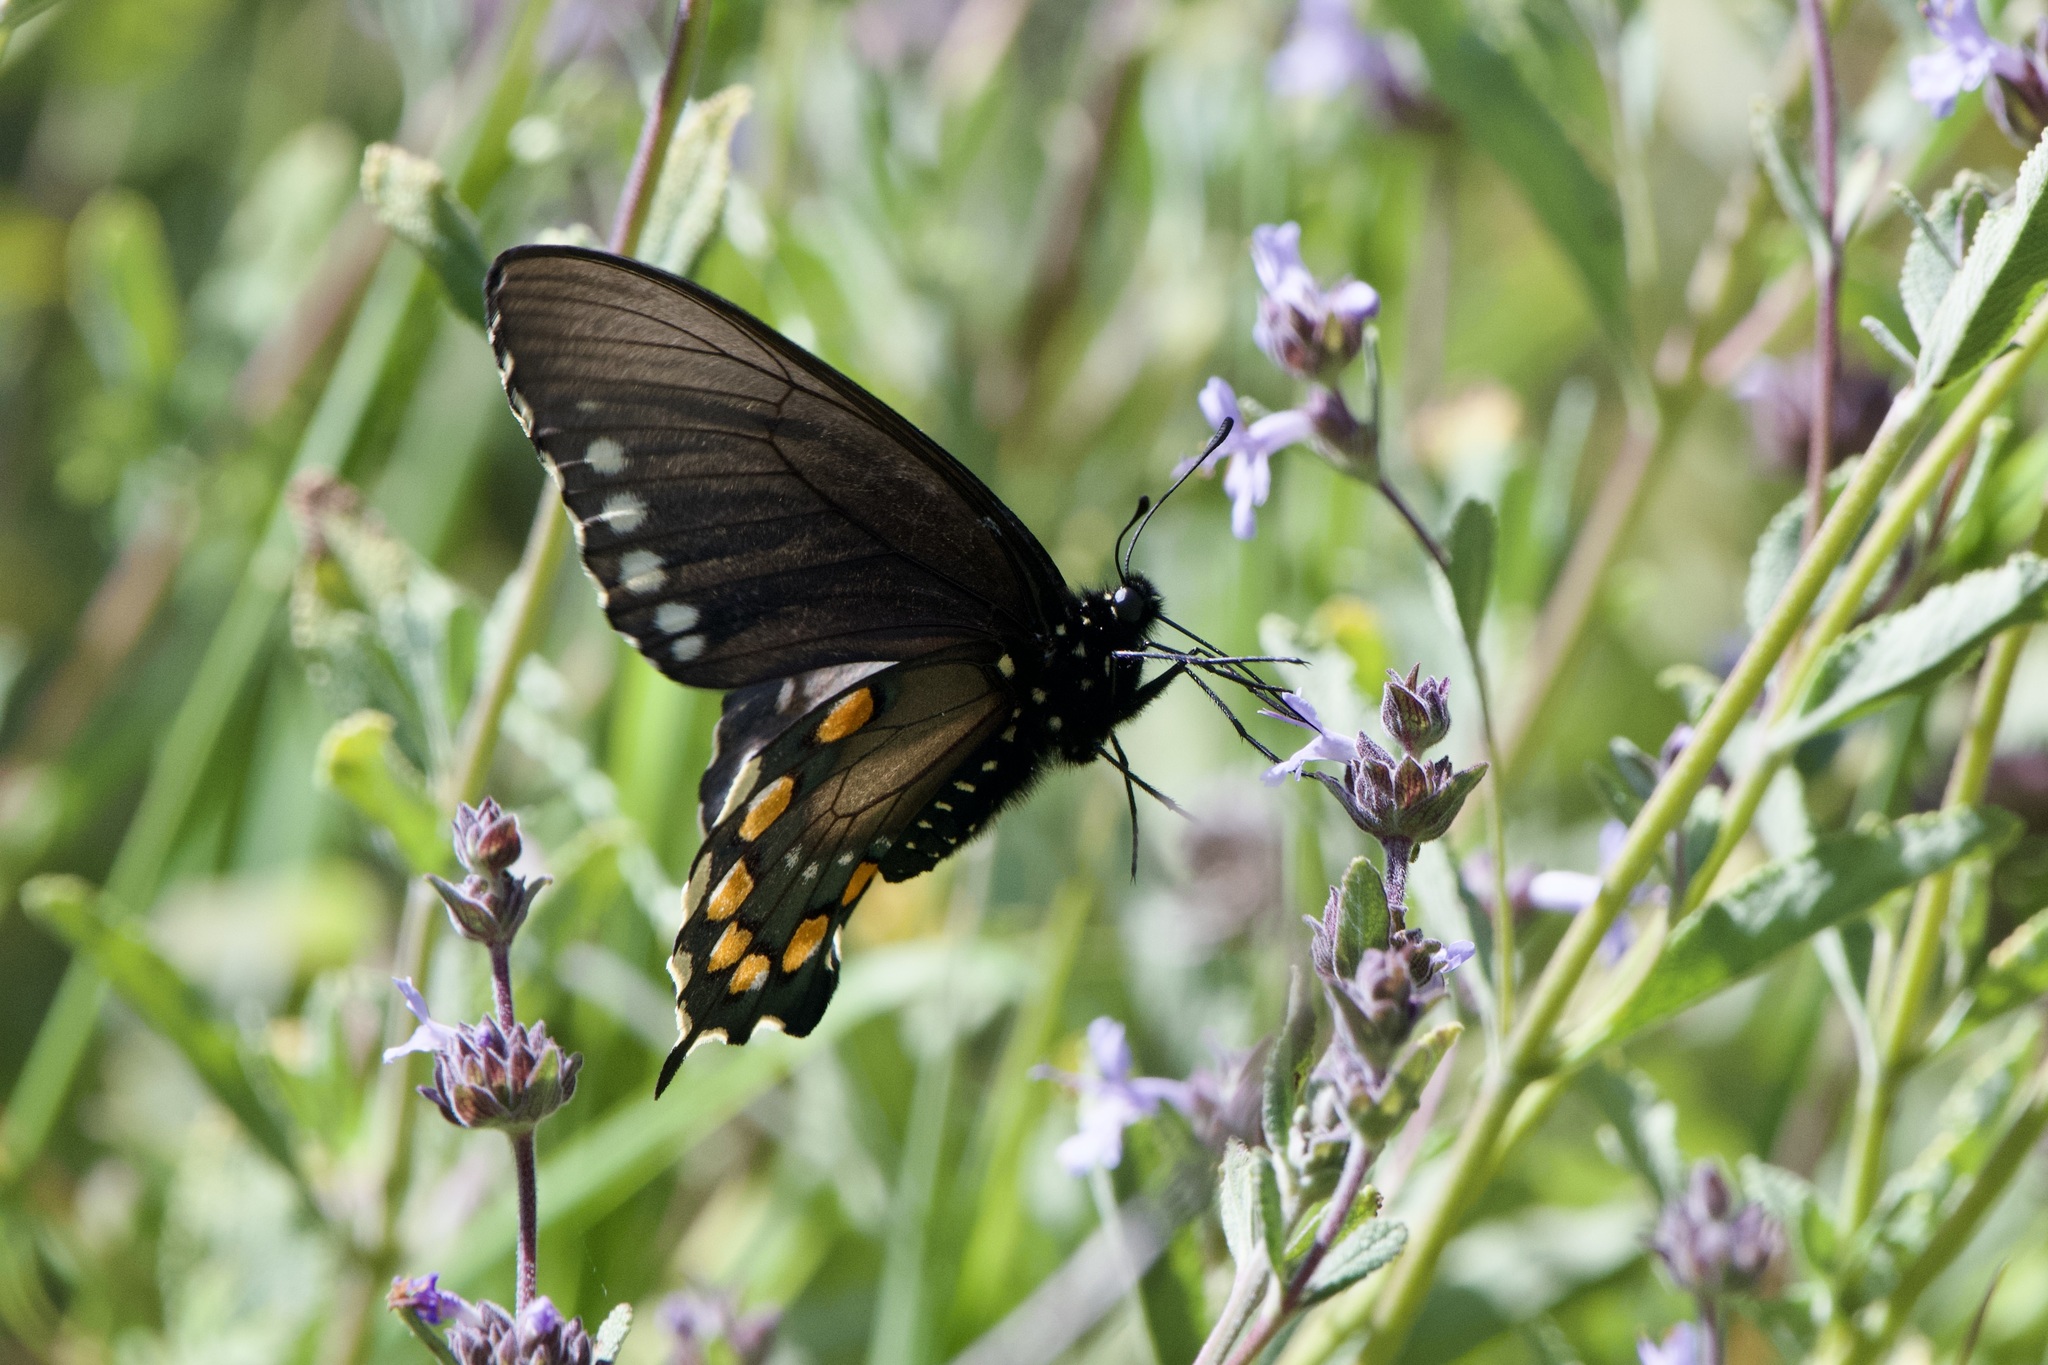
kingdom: Animalia
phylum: Arthropoda
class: Insecta
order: Lepidoptera
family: Papilionidae
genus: Battus
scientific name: Battus philenor
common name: Pipevine swallowtail
